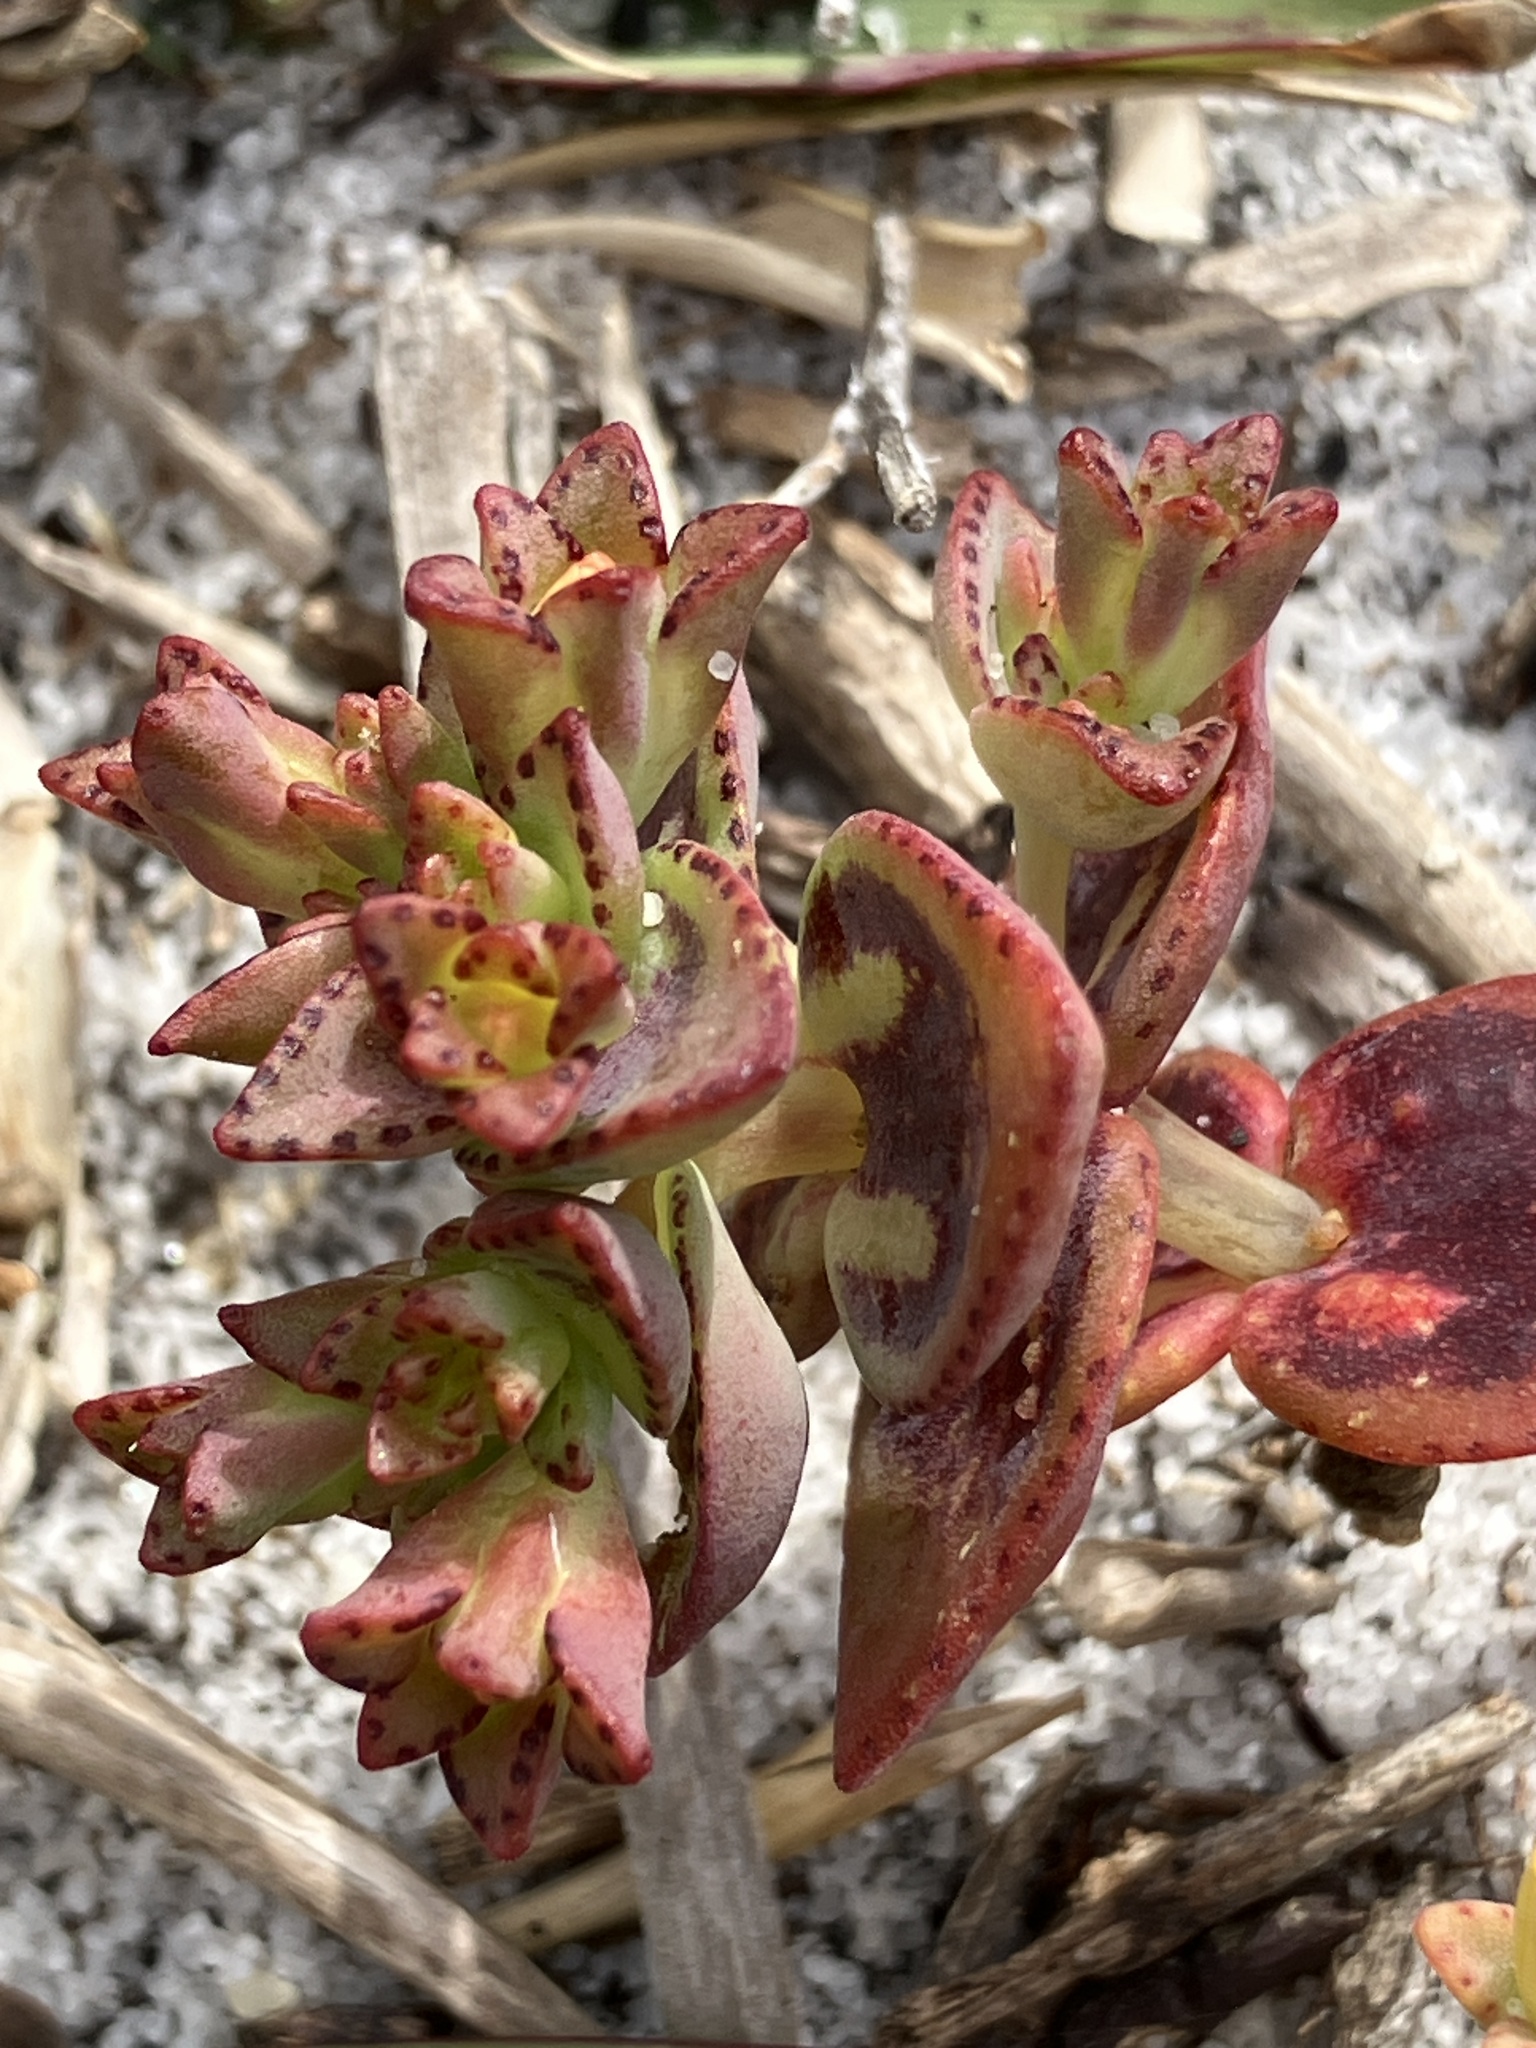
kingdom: Plantae
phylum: Tracheophyta
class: Magnoliopsida
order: Saxifragales
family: Crassulaceae
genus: Crassula
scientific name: Crassula dichotoma
